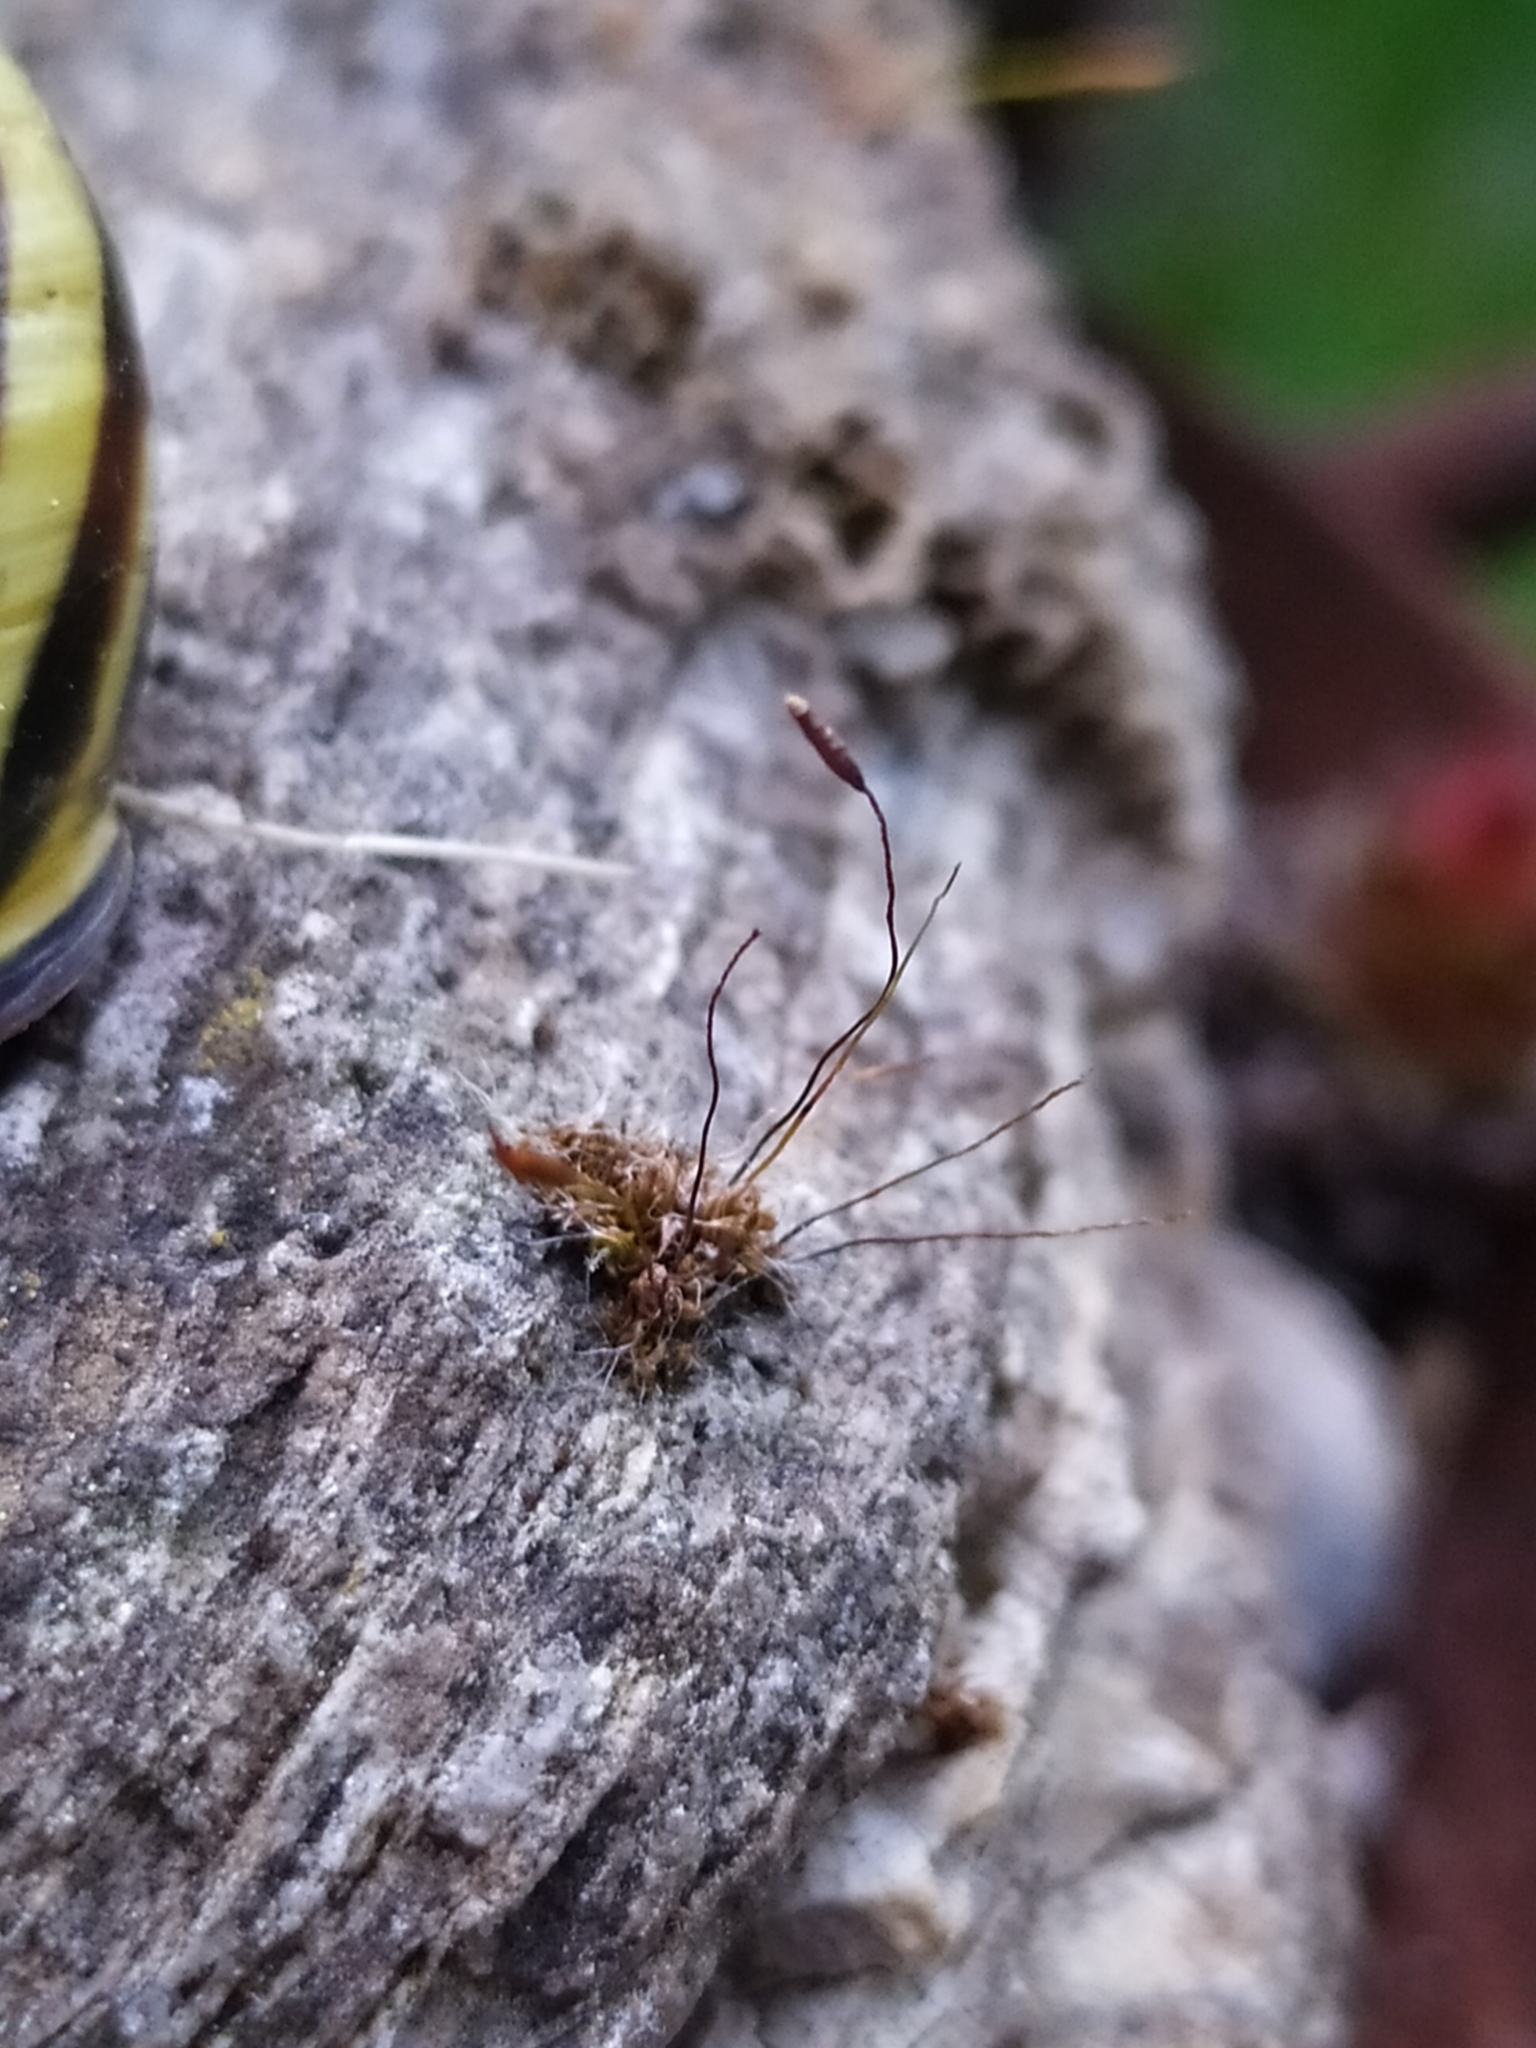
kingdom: Plantae
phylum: Bryophyta
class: Bryopsida
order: Pottiales
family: Pottiaceae
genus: Tortula
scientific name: Tortula muralis
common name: Wall screw-moss
